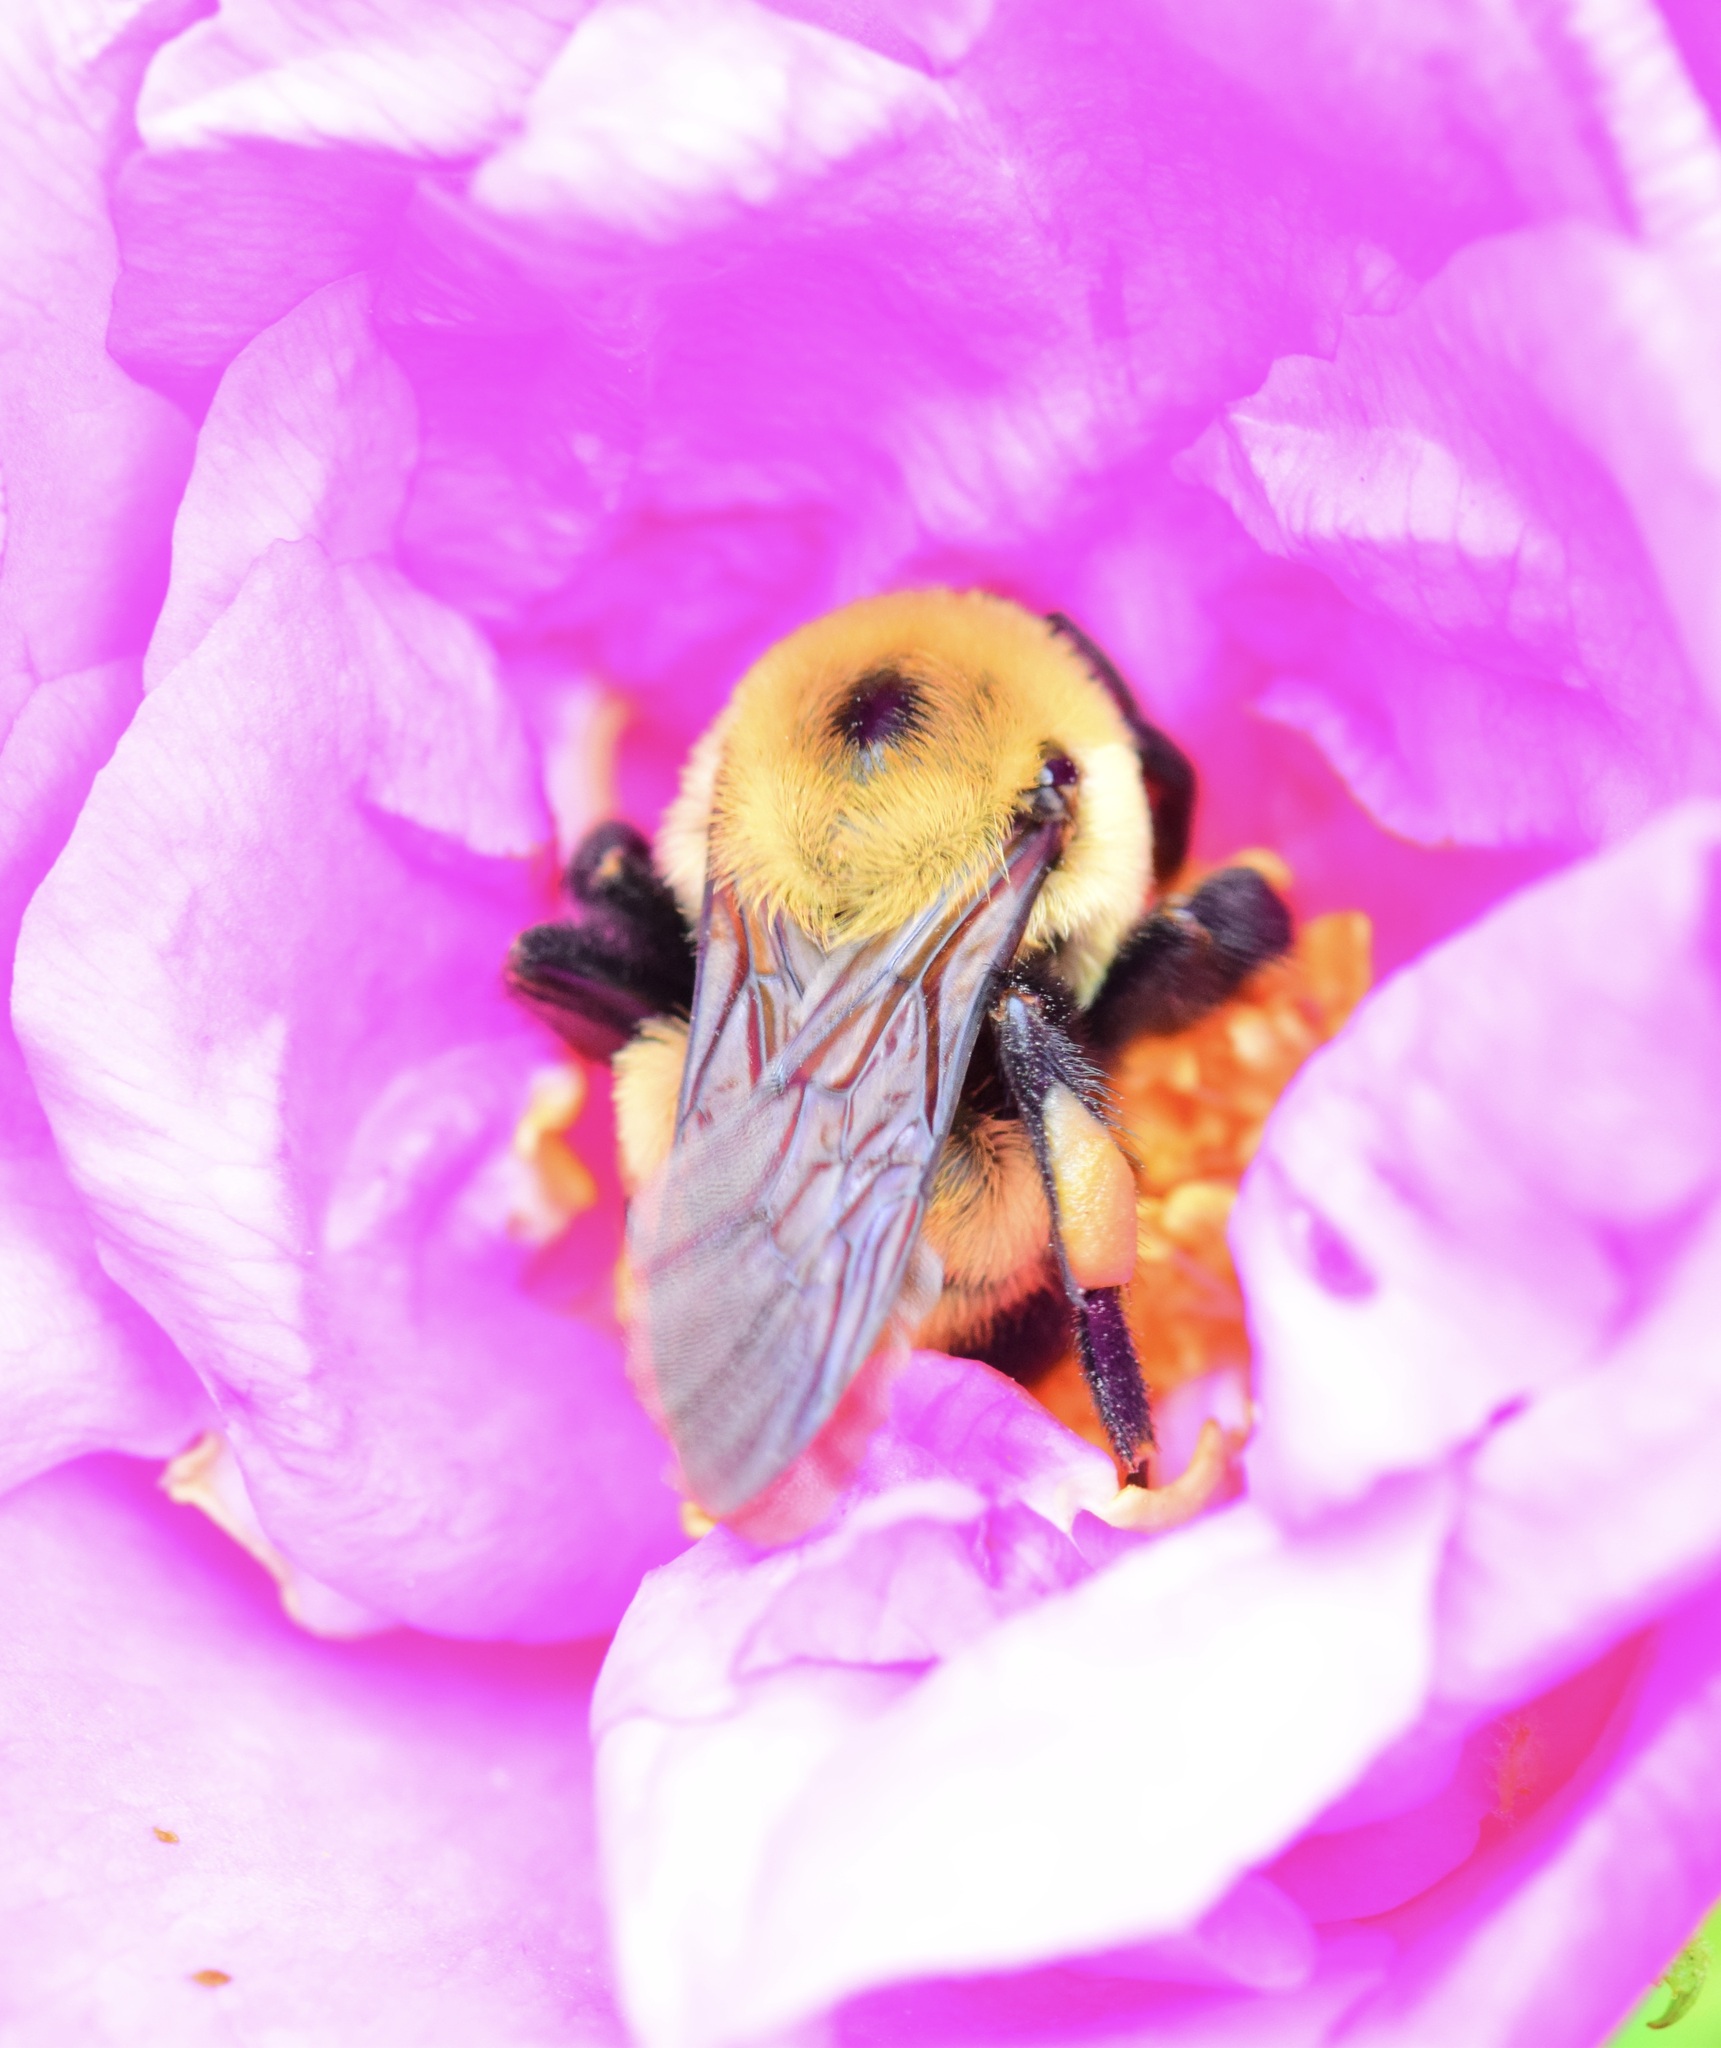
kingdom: Animalia
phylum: Arthropoda
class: Insecta
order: Hymenoptera
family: Apidae
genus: Bombus
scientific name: Bombus griseocollis
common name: Brown-belted bumble bee
